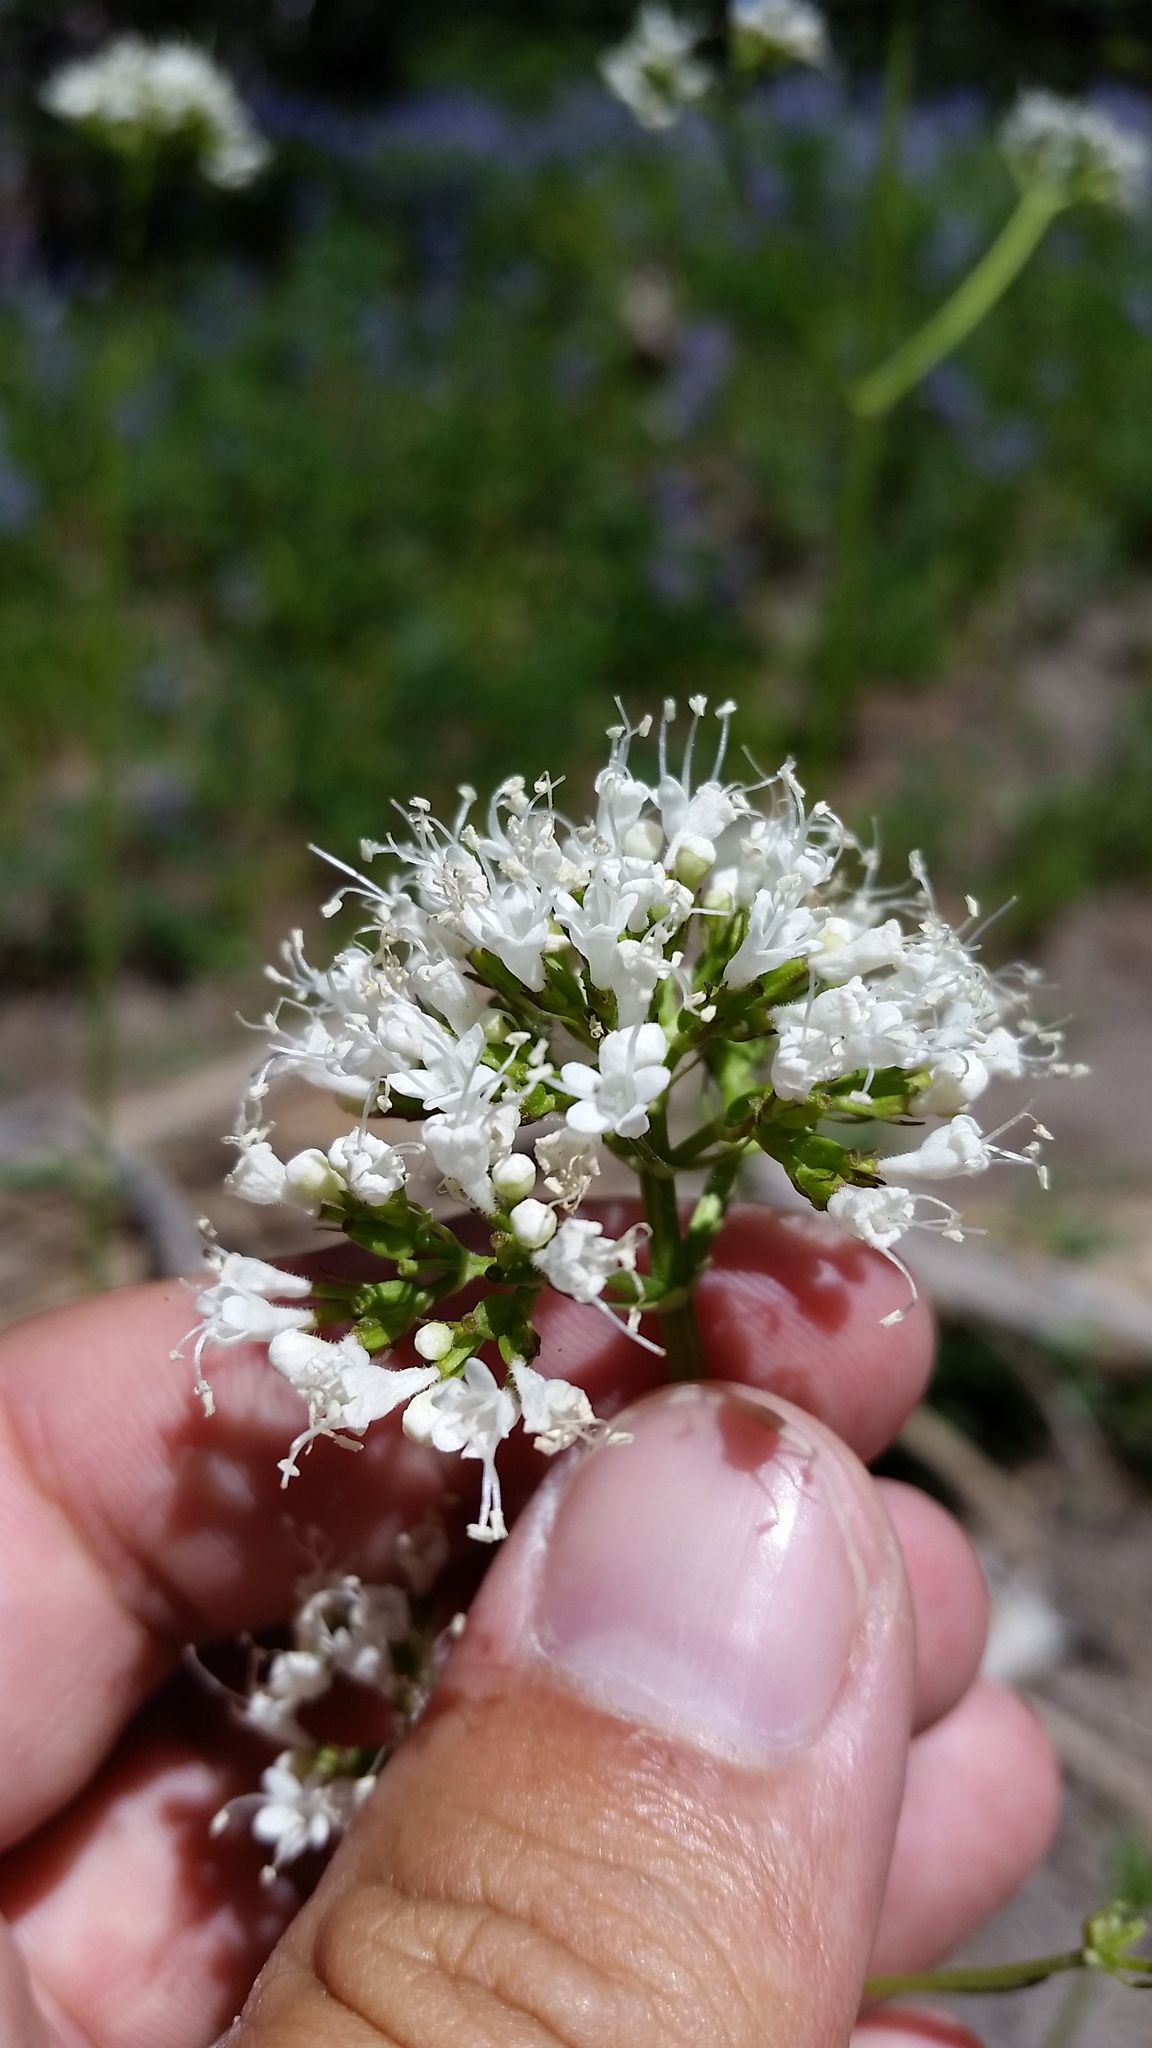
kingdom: Plantae
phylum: Tracheophyta
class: Magnoliopsida
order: Dipsacales
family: Caprifoliaceae
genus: Valeriana
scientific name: Valeriana sitchensis
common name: Pacific valerian
